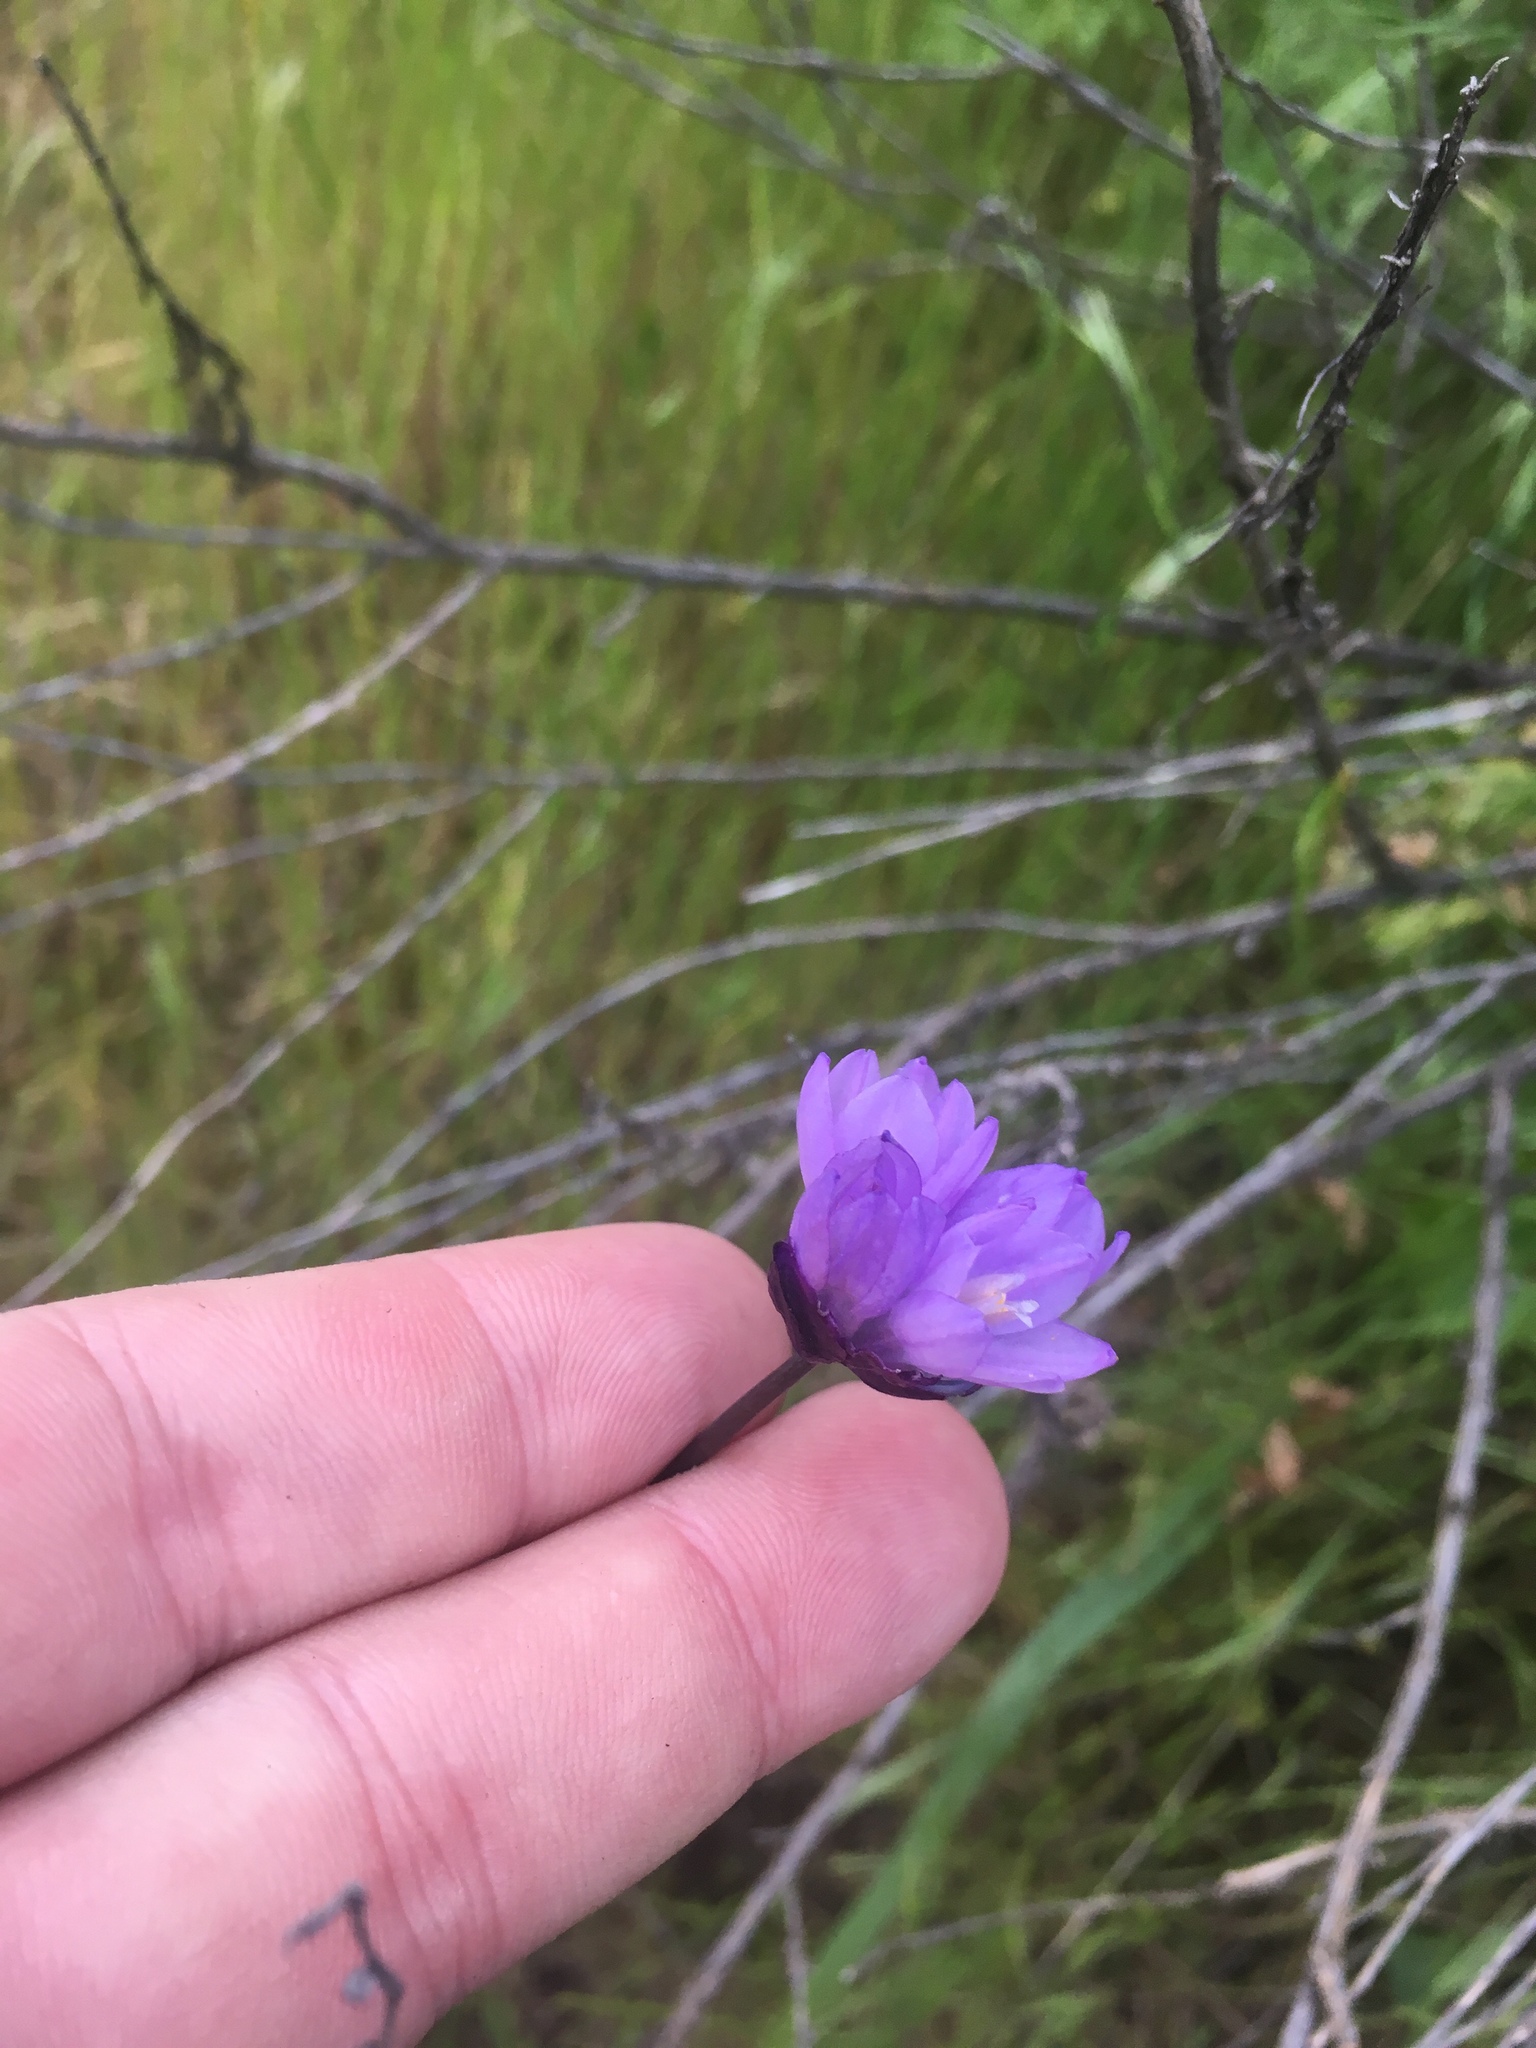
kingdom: Plantae
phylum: Tracheophyta
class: Liliopsida
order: Asparagales
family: Asparagaceae
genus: Dipterostemon
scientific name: Dipterostemon capitatus
